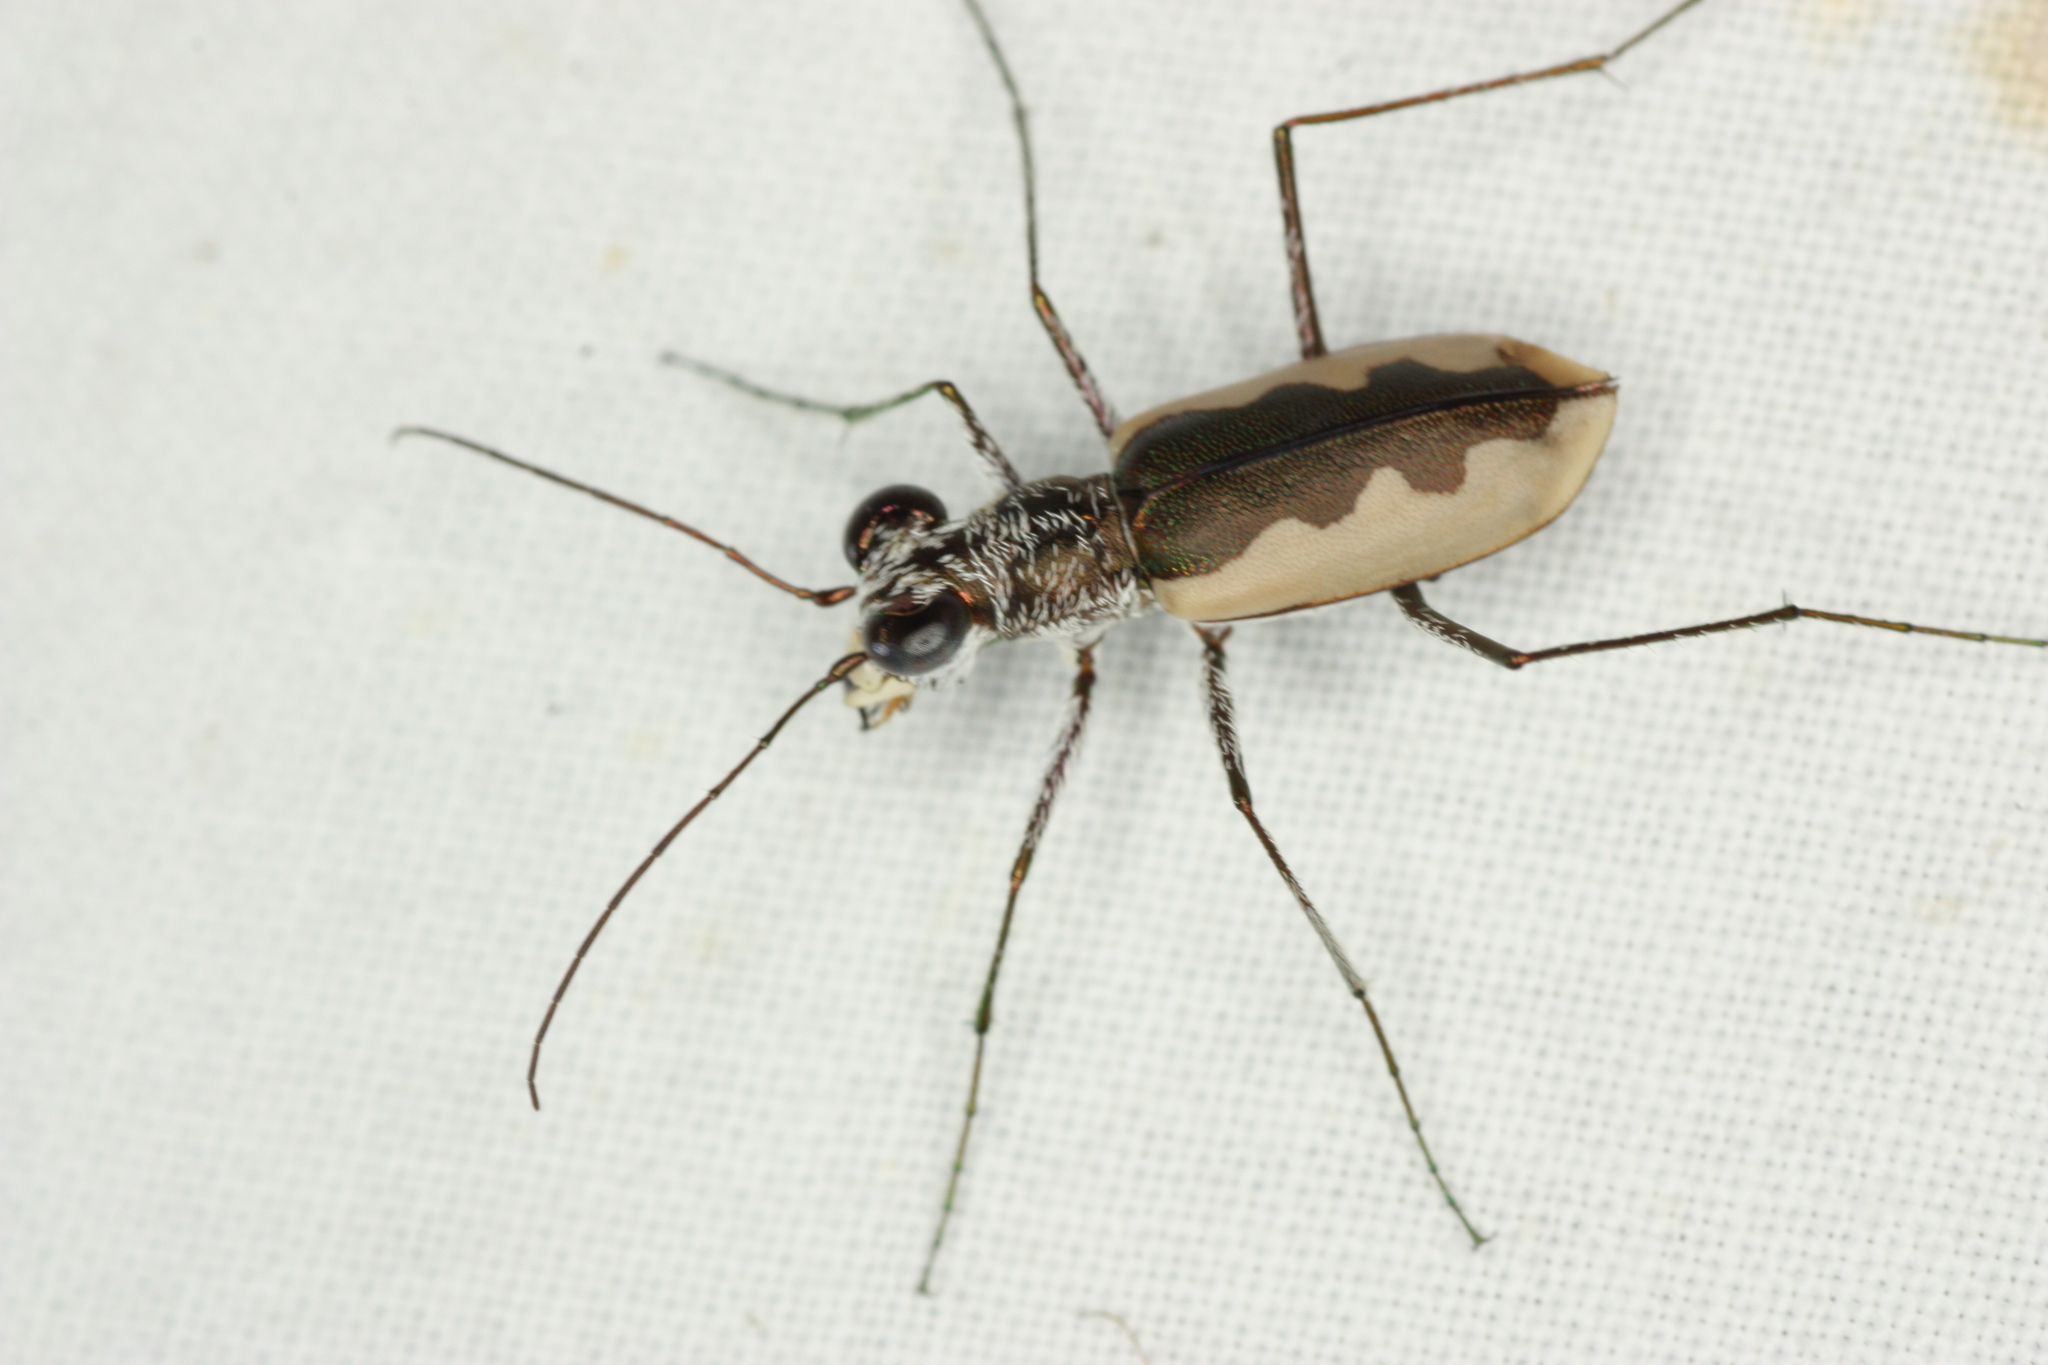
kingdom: Animalia
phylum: Arthropoda
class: Insecta
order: Coleoptera
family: Carabidae
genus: Eunota
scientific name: Eunota togata
